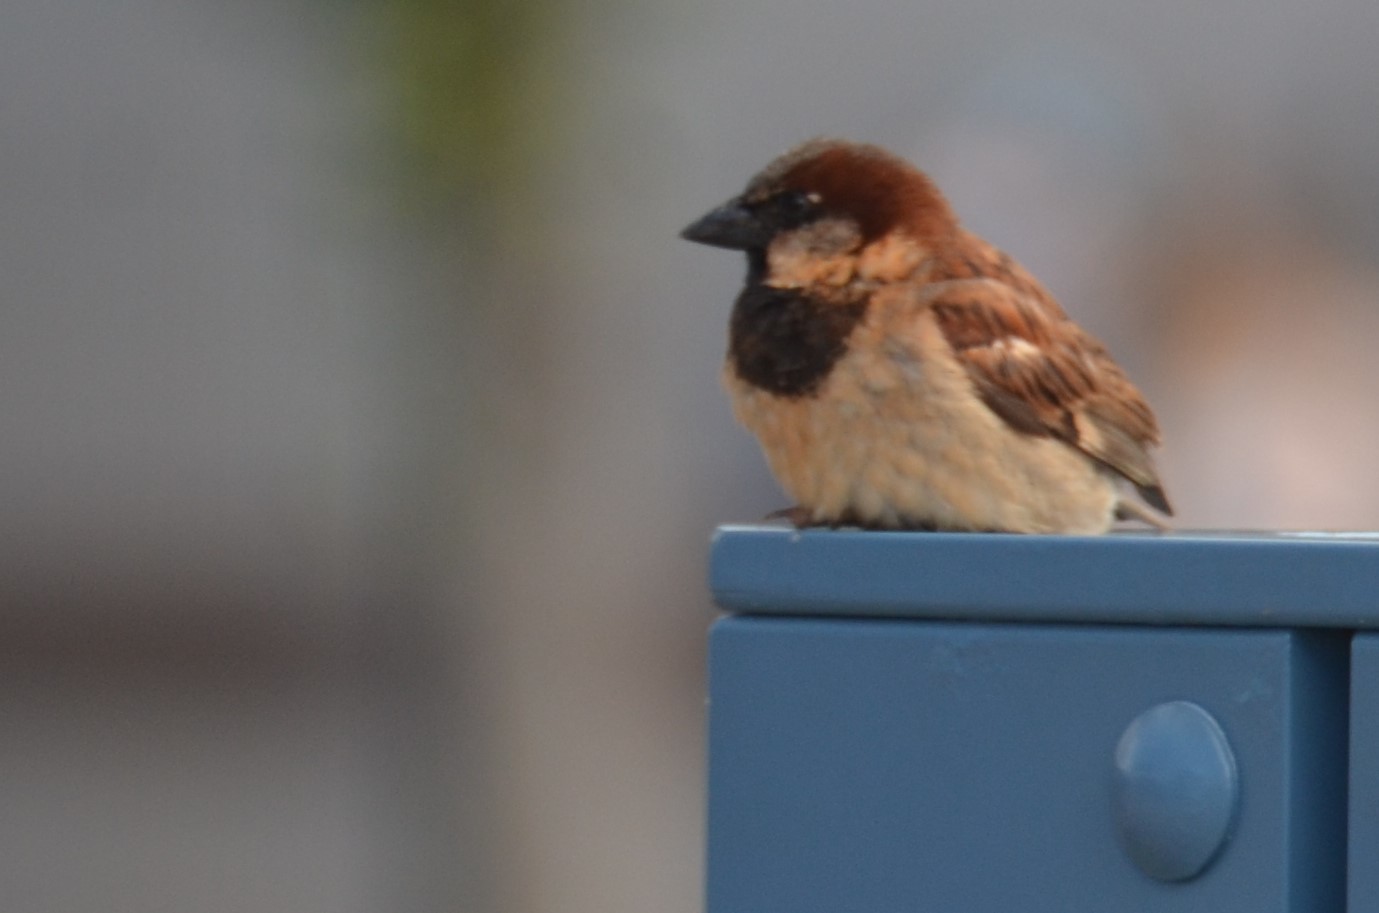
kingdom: Animalia
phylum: Chordata
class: Aves
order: Passeriformes
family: Passeridae
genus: Passer
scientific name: Passer domesticus
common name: House sparrow
